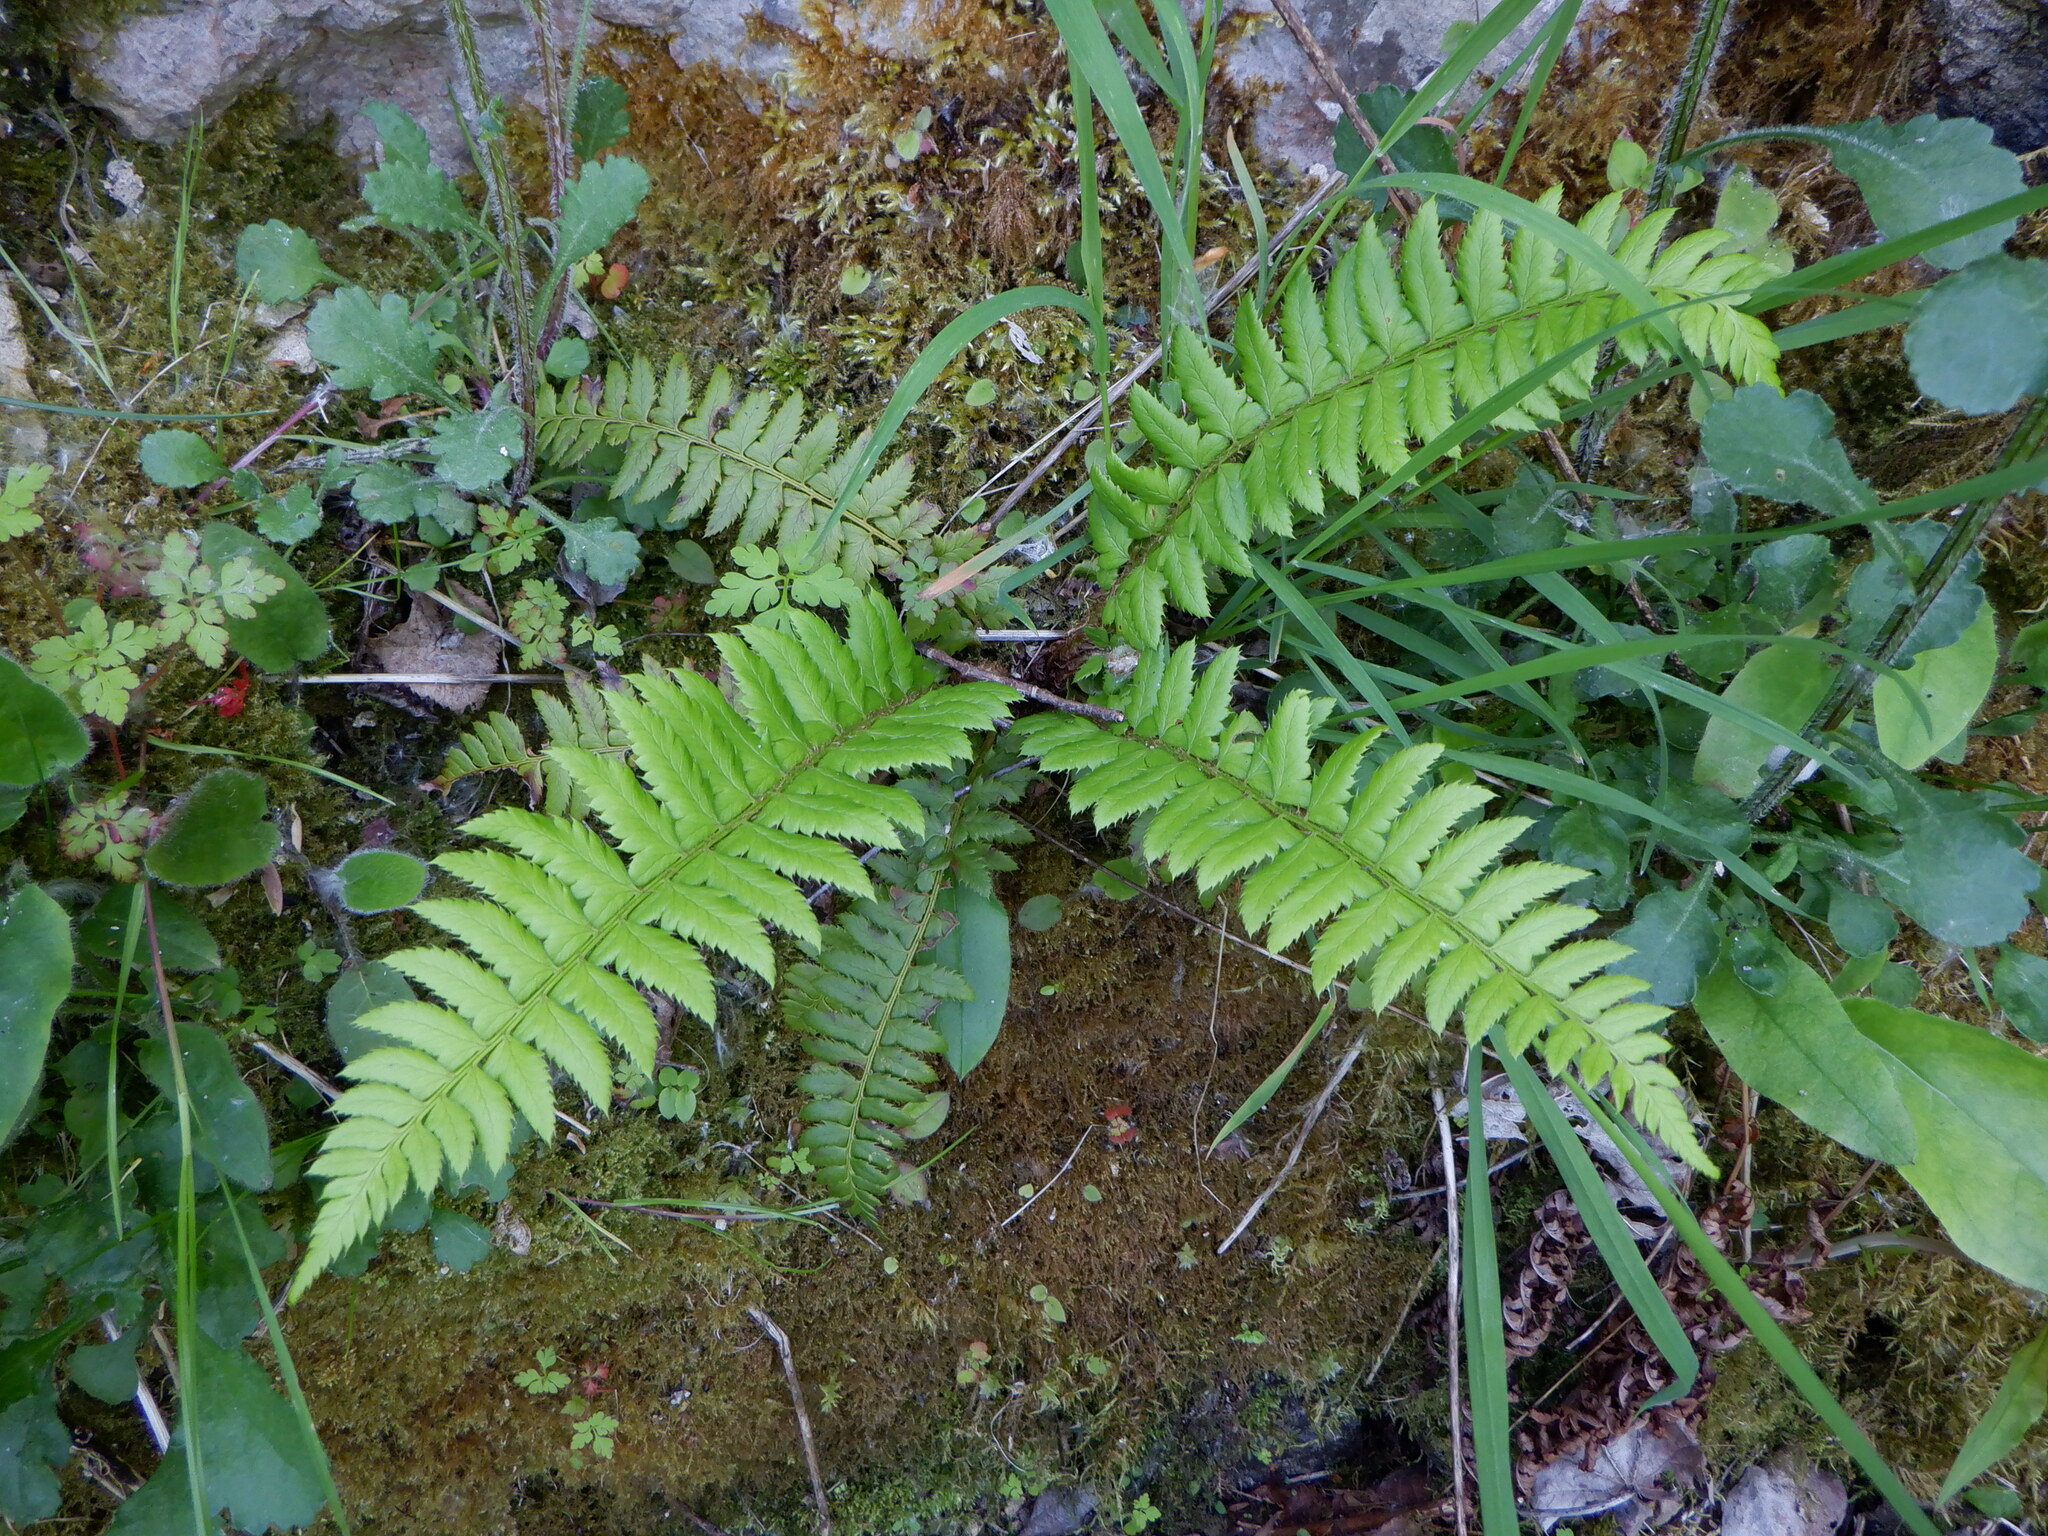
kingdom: Plantae
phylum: Tracheophyta
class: Polypodiopsida
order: Polypodiales
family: Dryopteridaceae
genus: Polystichum
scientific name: Polystichum aculeatum
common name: Hard shield-fern
